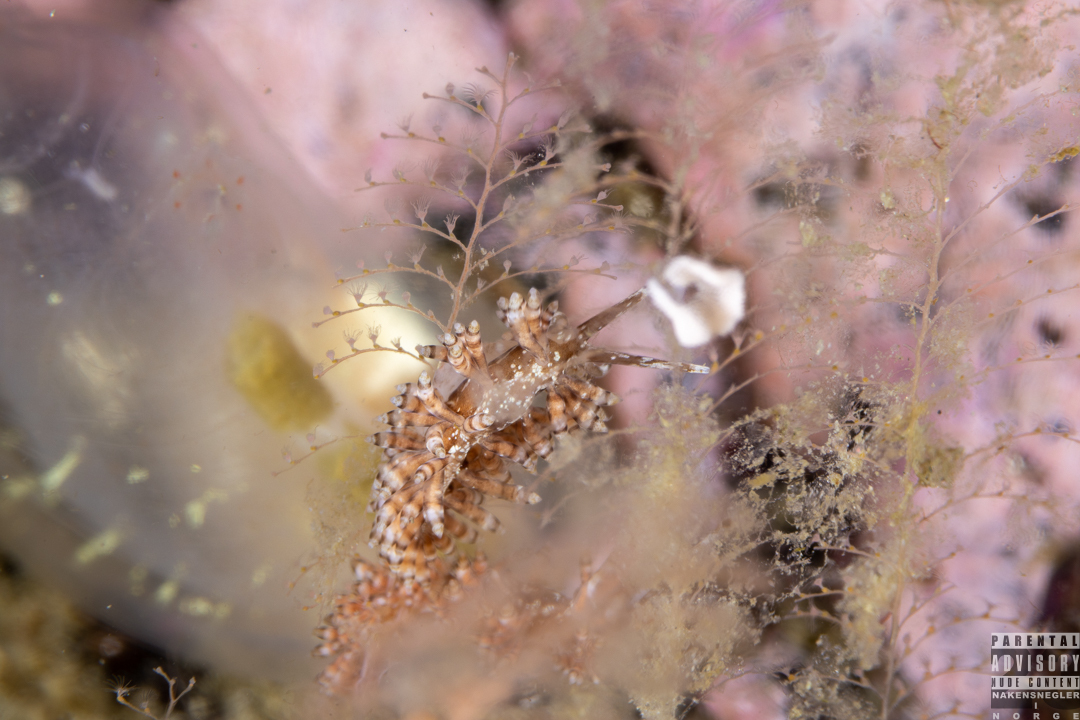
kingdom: Animalia
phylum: Mollusca
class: Gastropoda
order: Nudibranchia
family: Eubranchidae
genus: Eubranchus
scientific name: Eubranchus vittatus
